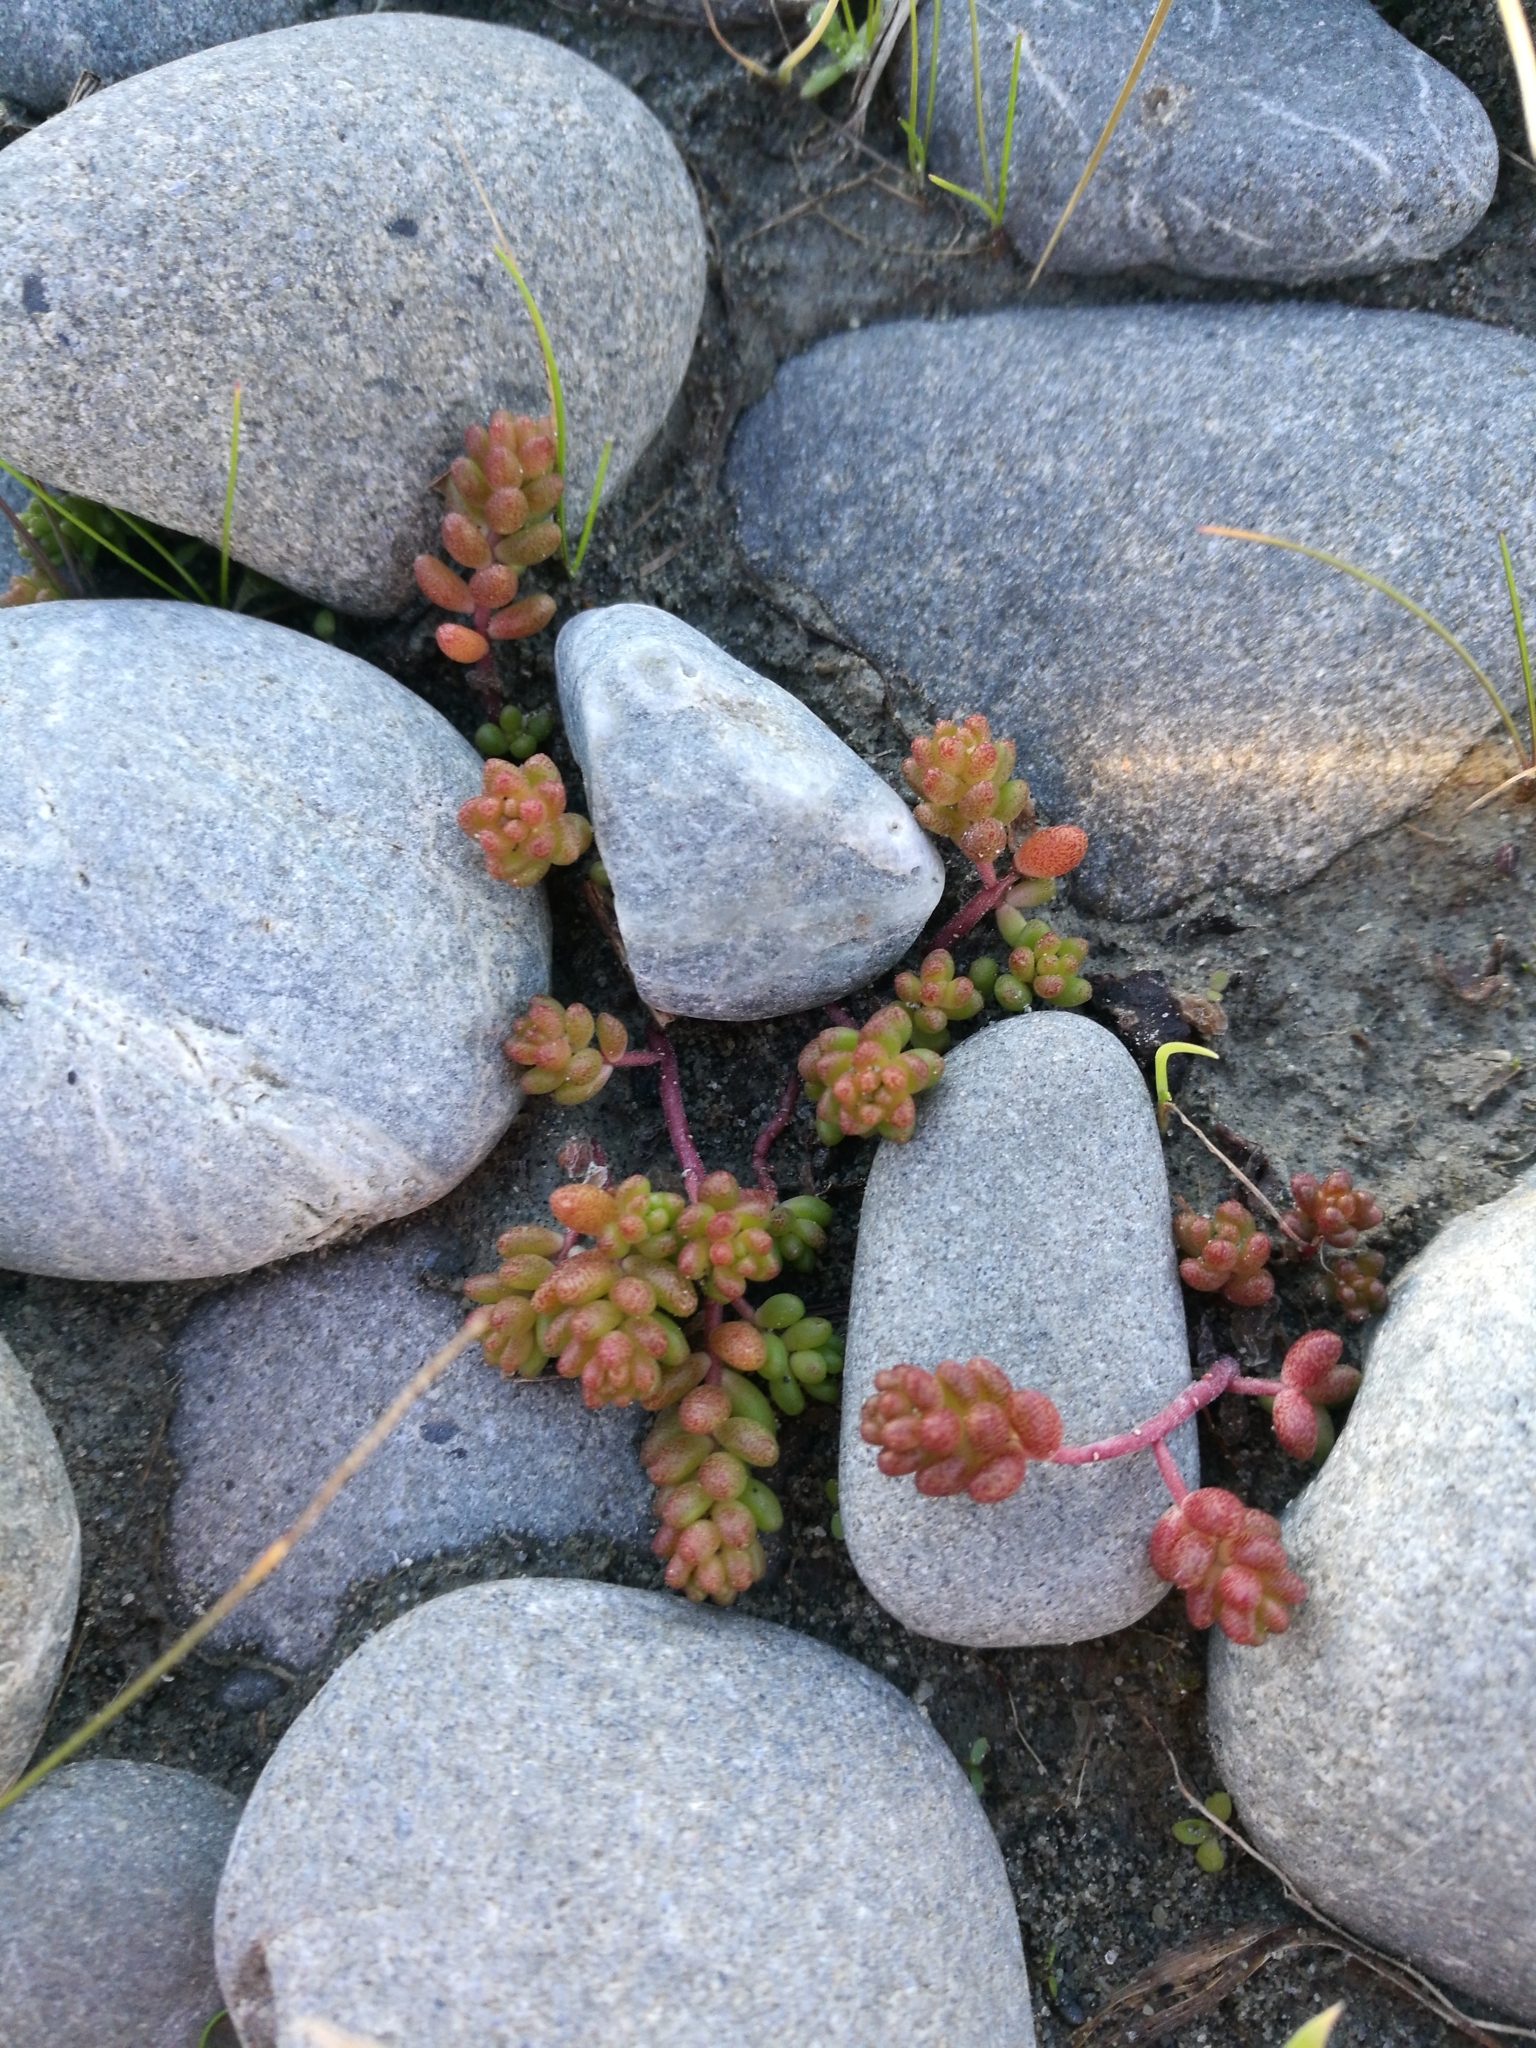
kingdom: Plantae
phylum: Tracheophyta
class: Magnoliopsida
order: Saxifragales
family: Crassulaceae
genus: Sedum
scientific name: Sedum album
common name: White stonecrop
